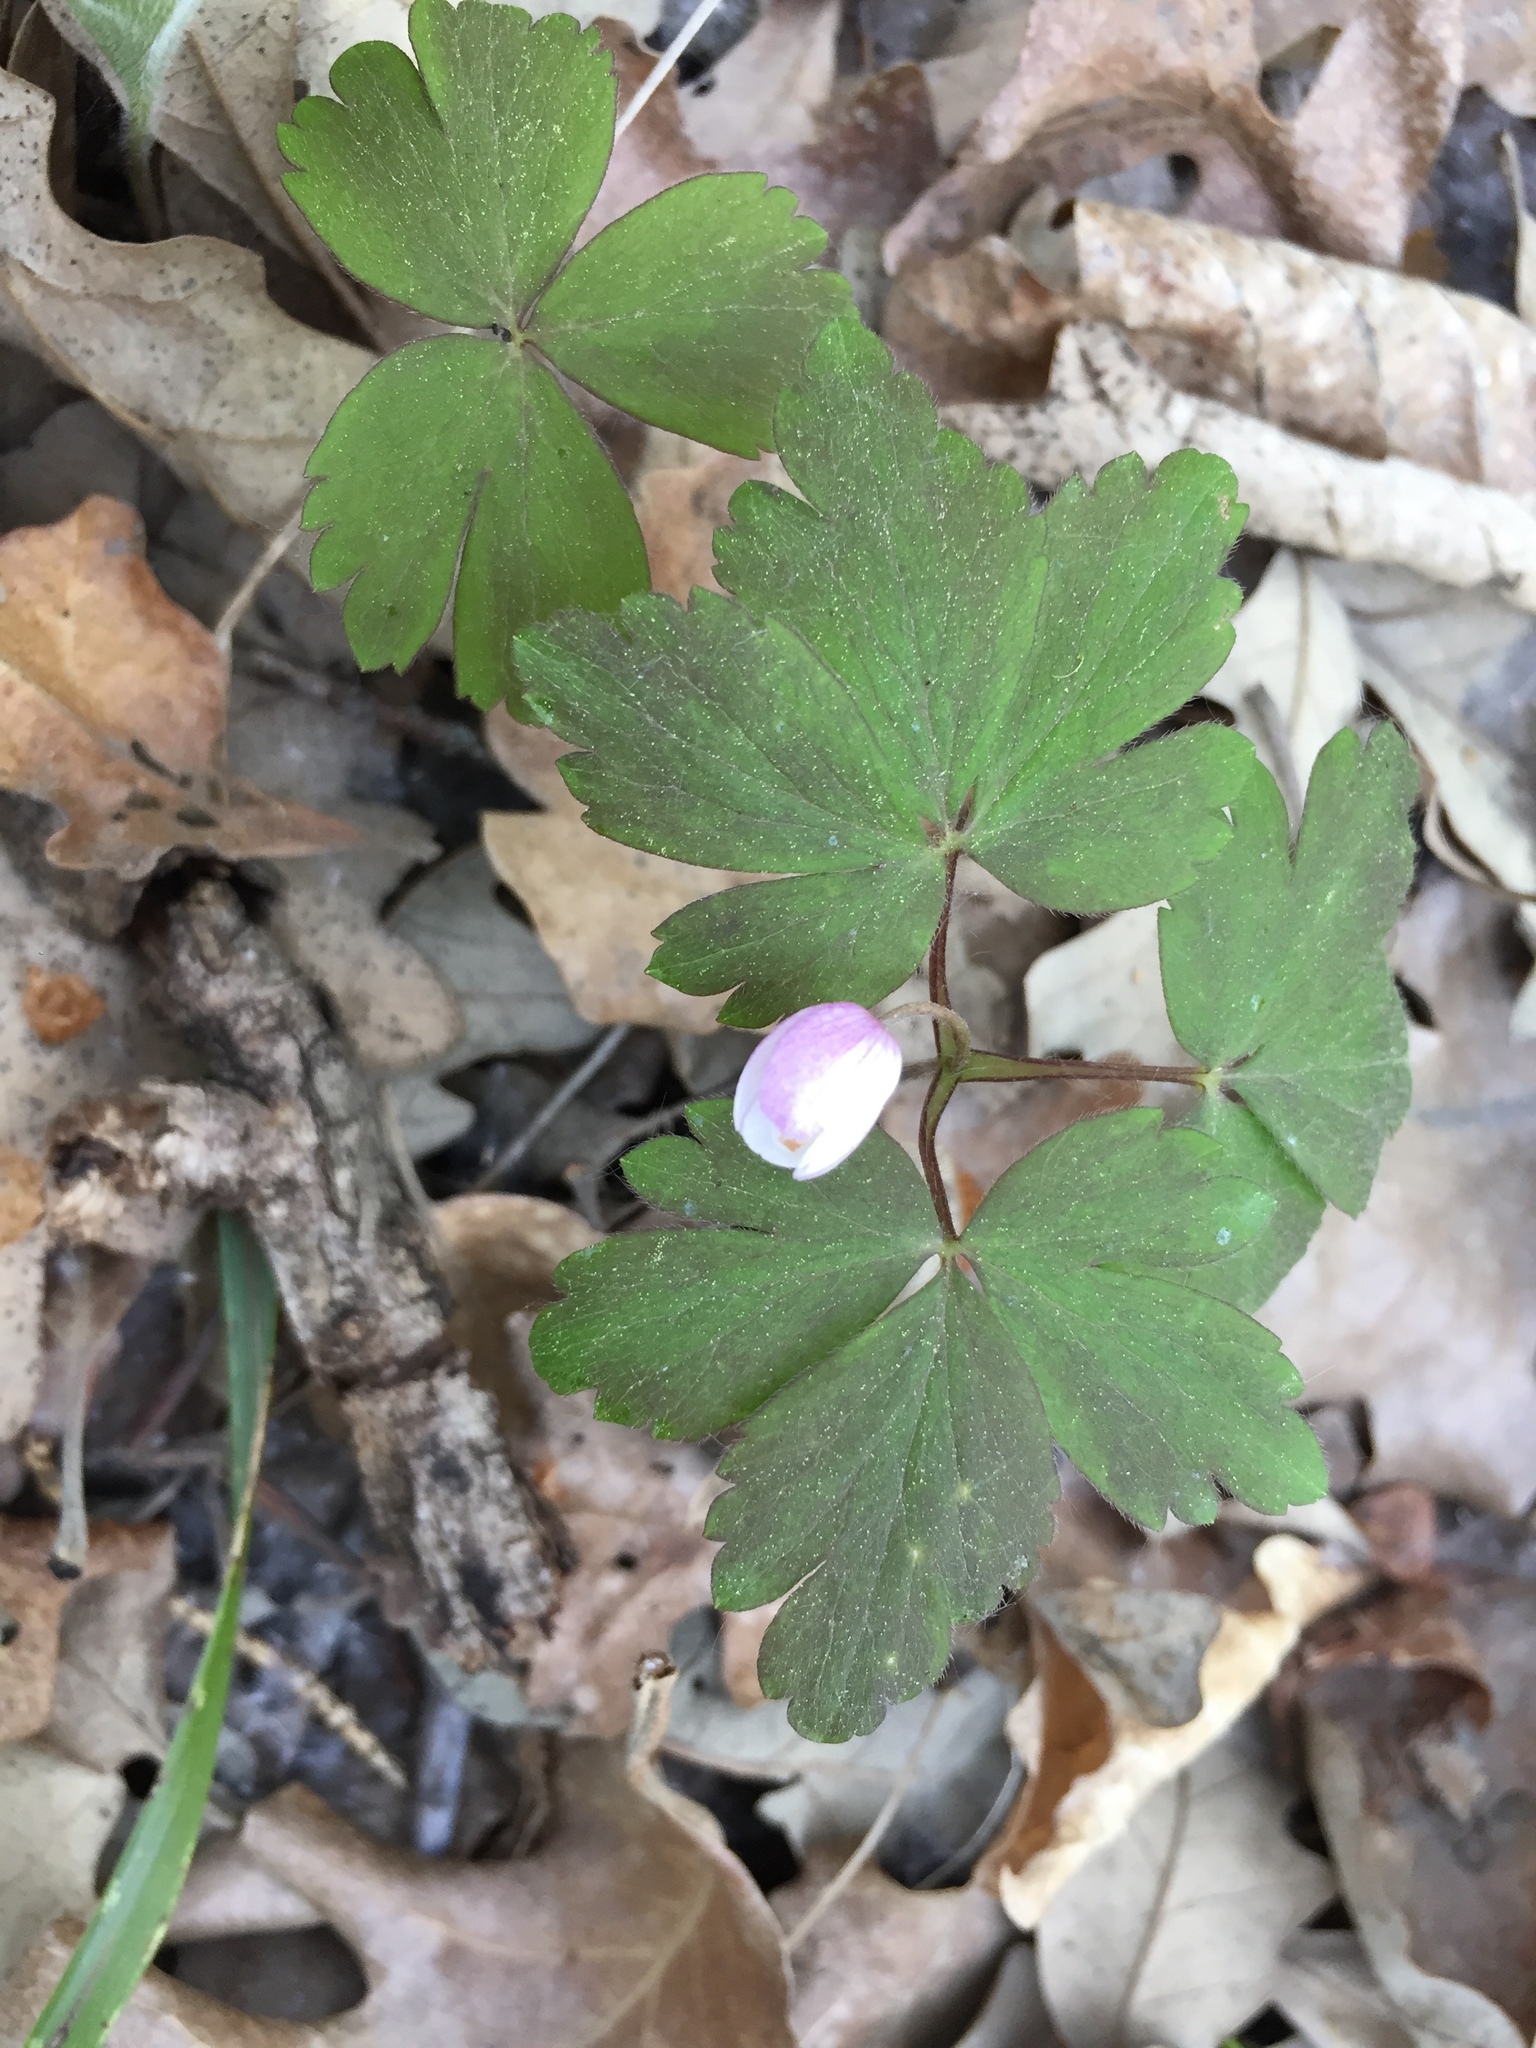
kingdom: Plantae
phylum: Tracheophyta
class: Magnoliopsida
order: Ranunculales
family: Ranunculaceae
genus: Anemone
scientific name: Anemone quinquefolia
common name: Wood anemone
